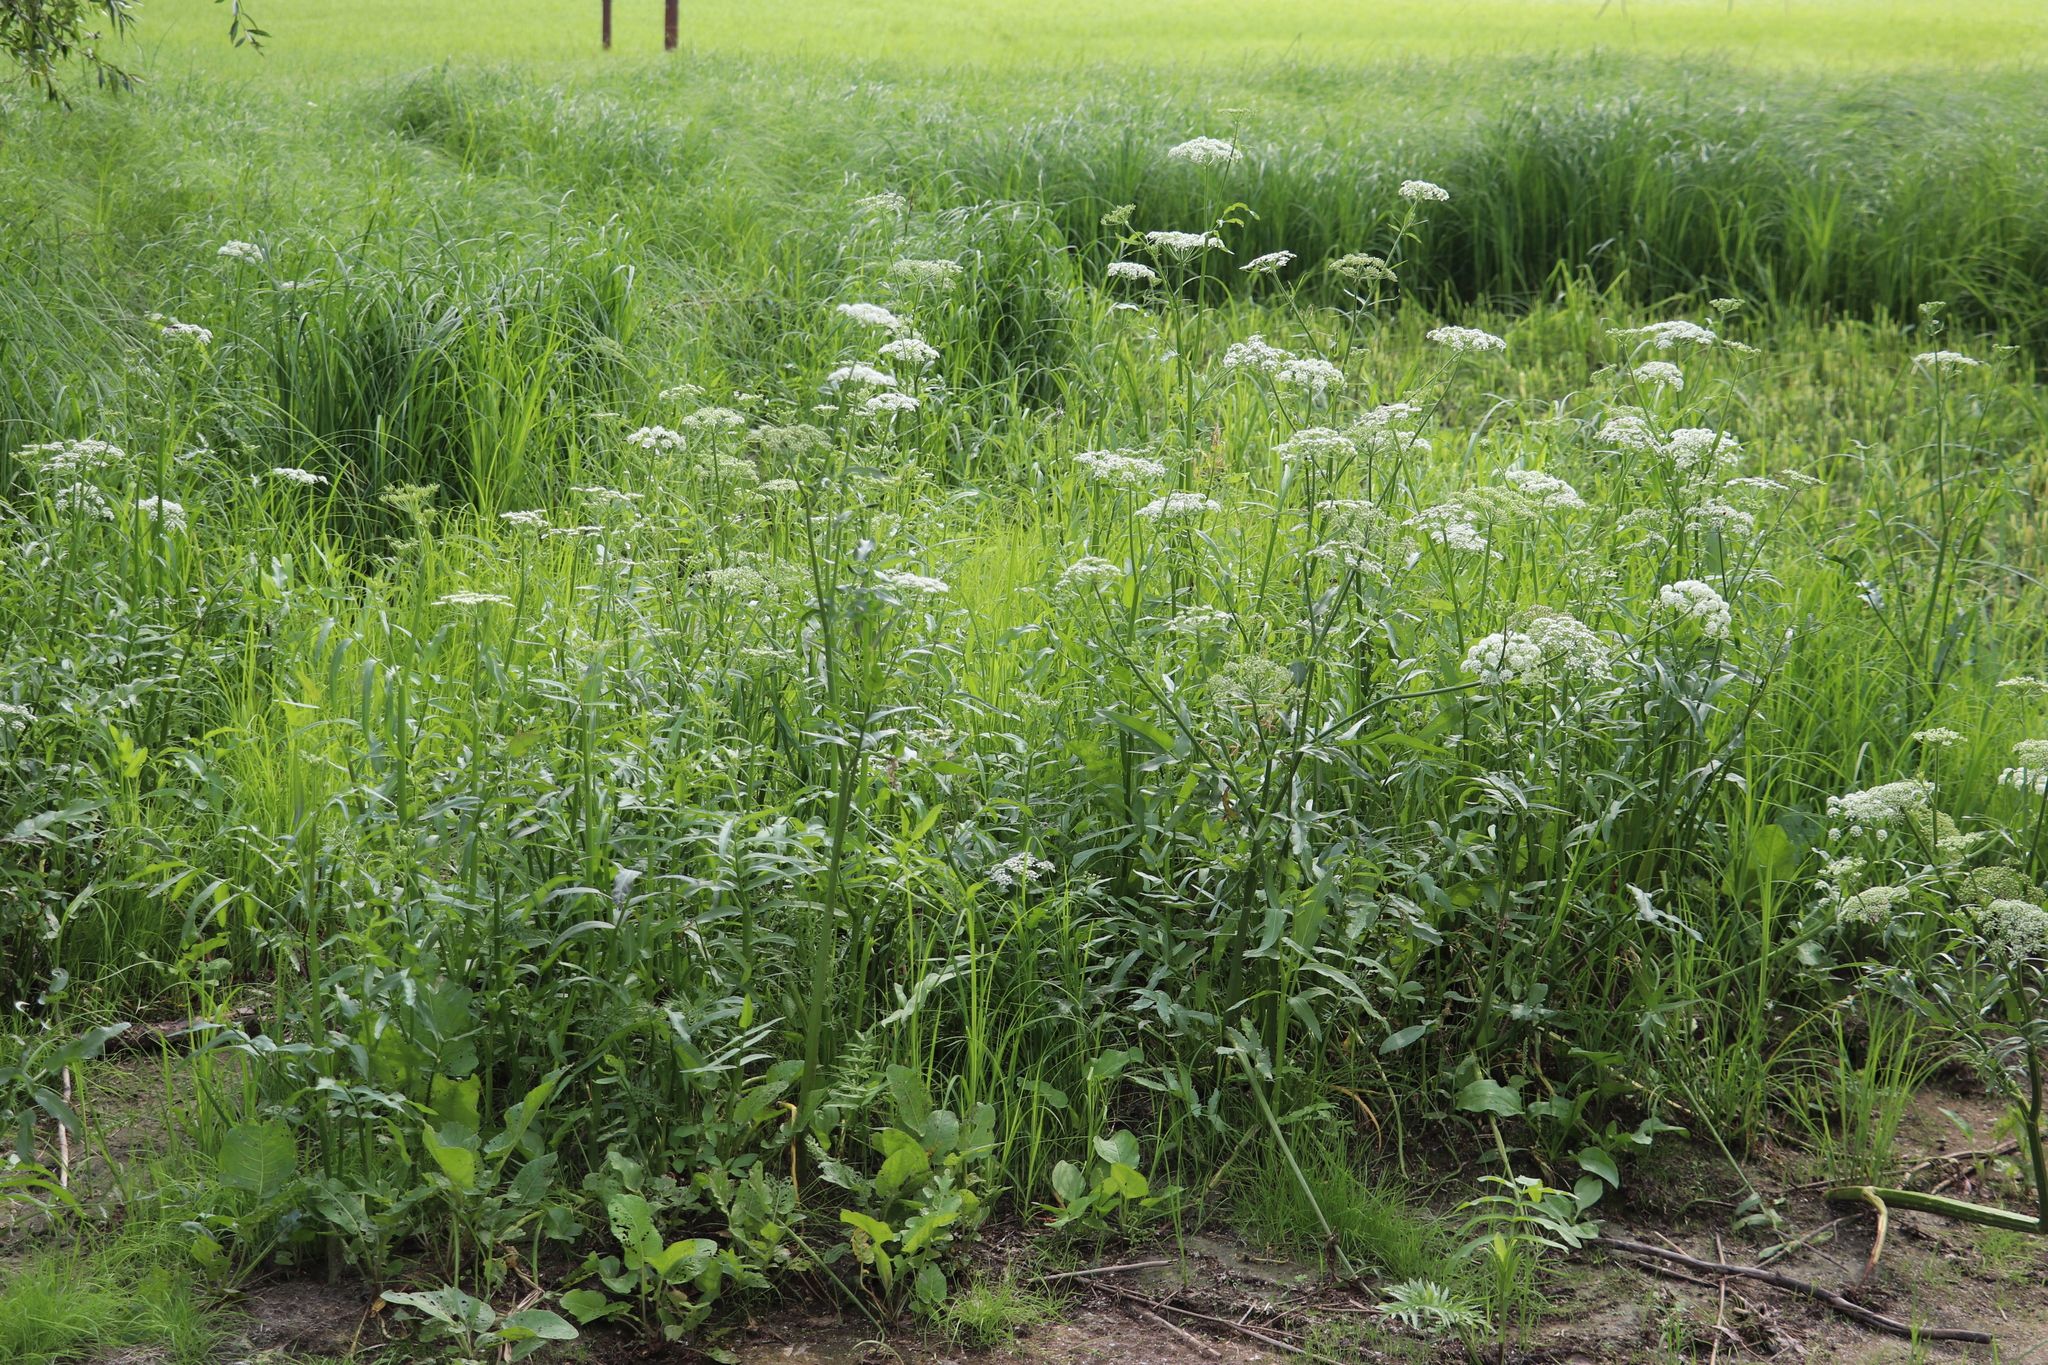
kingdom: Plantae
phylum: Tracheophyta
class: Magnoliopsida
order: Apiales
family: Apiaceae
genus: Cicuta
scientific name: Cicuta virosa
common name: Cowbane
